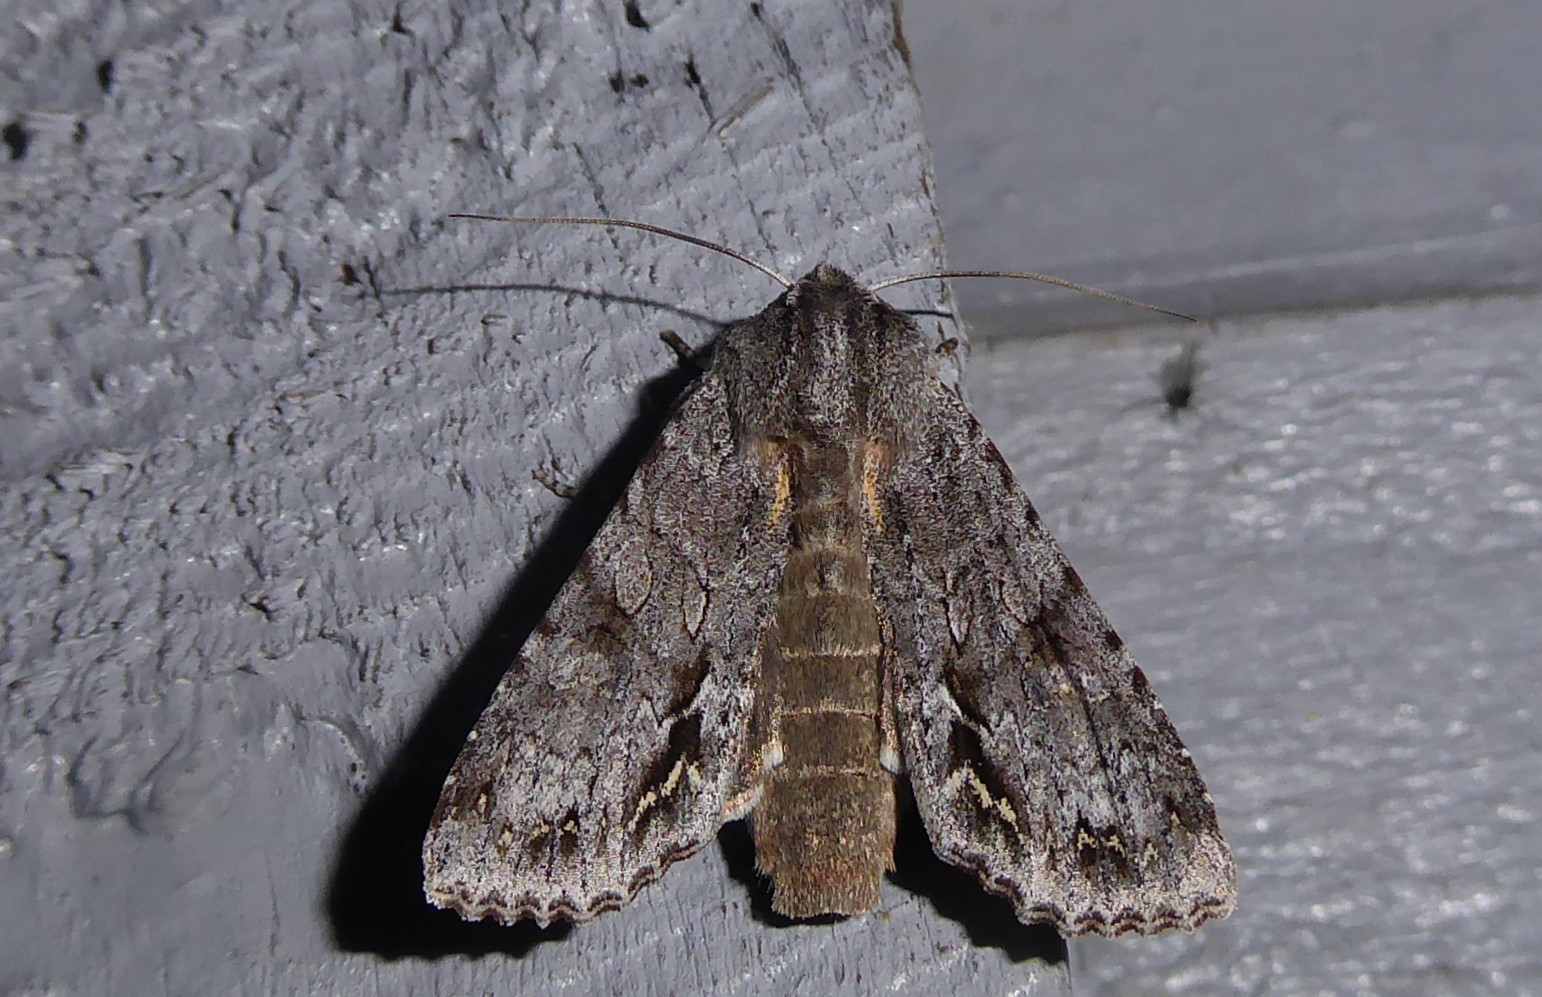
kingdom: Animalia
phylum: Arthropoda
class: Insecta
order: Lepidoptera
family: Noctuidae
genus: Ichneutica
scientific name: Ichneutica
